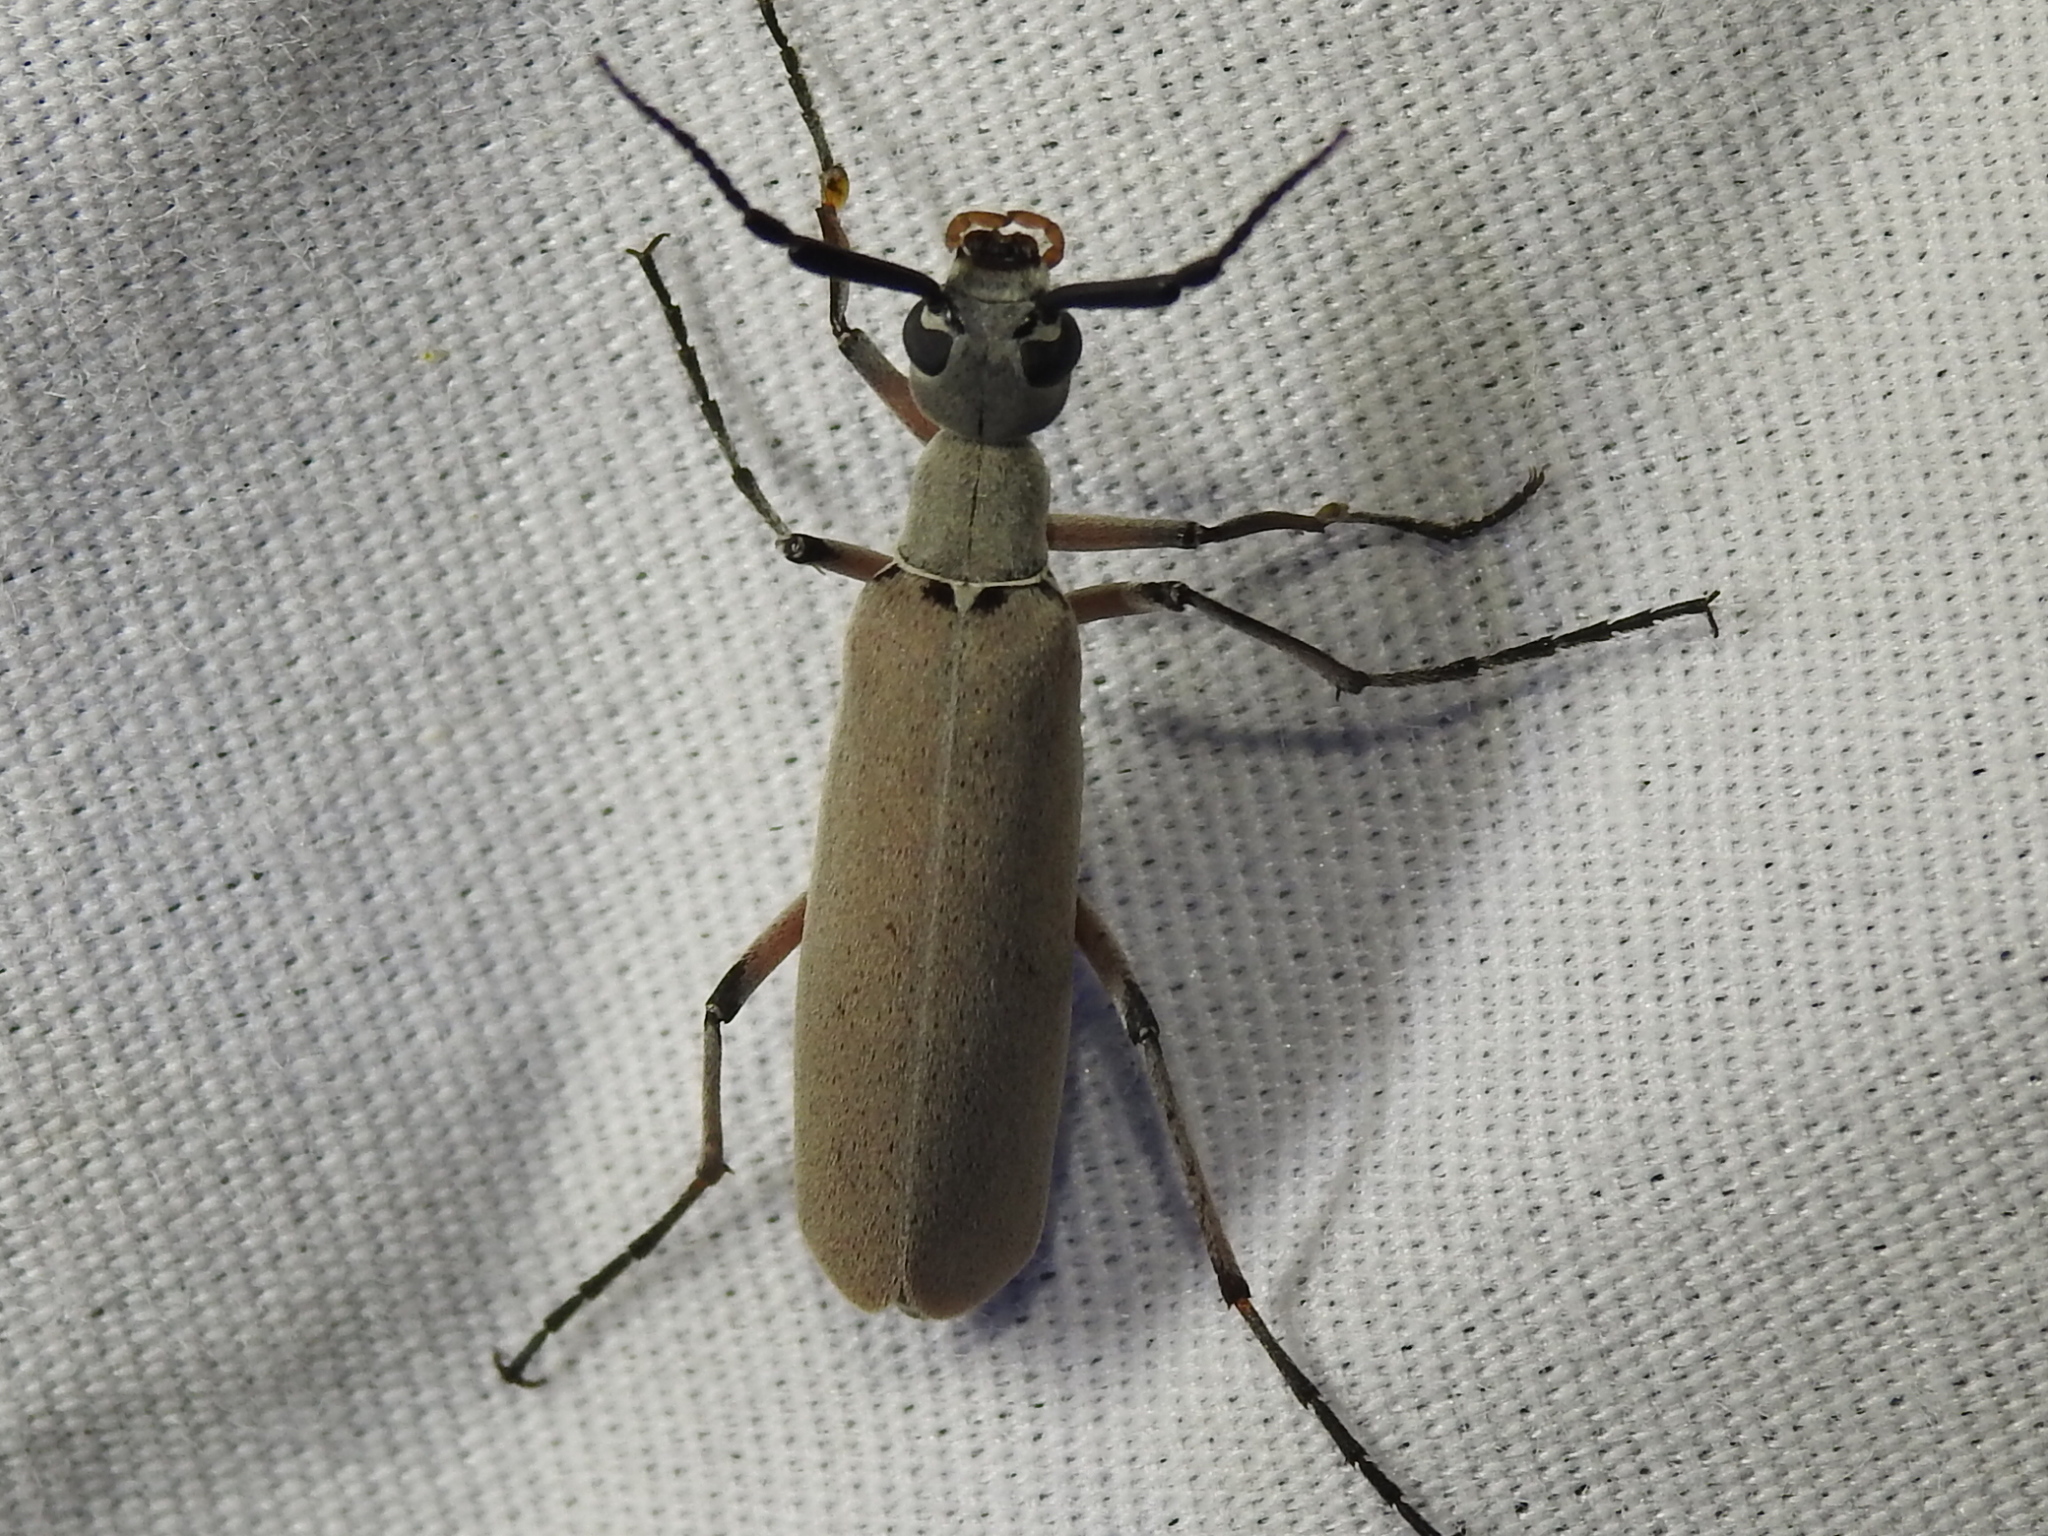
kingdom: Animalia
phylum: Arthropoda
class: Insecta
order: Coleoptera
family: Meloidae
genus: Epicauta
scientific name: Epicauta polingi
